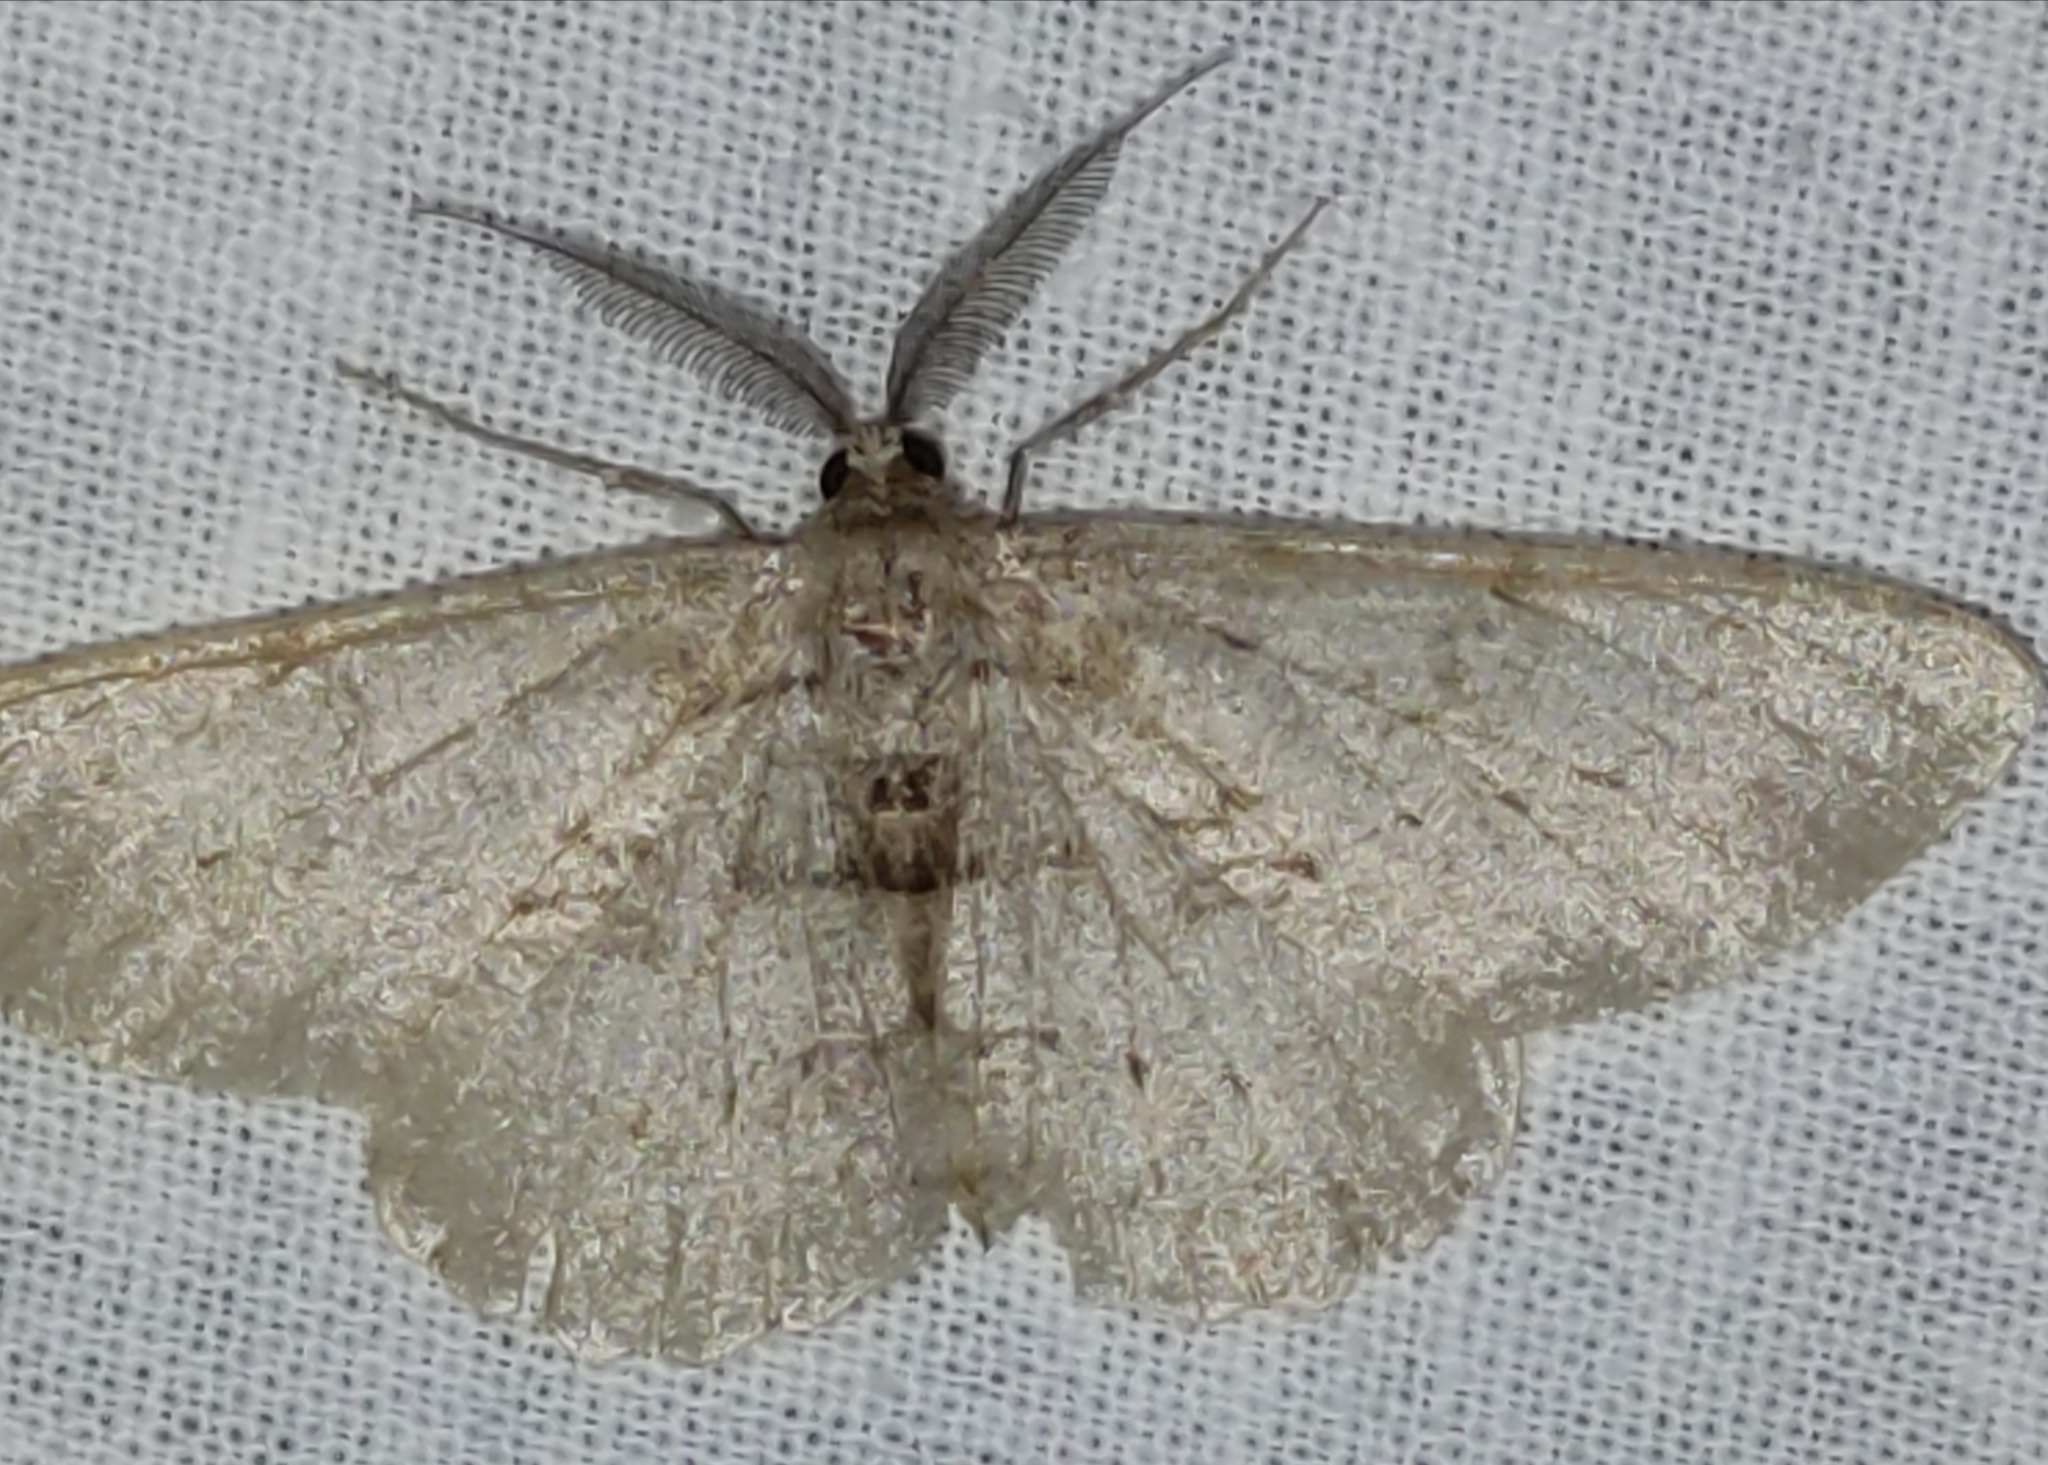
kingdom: Animalia
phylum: Arthropoda
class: Insecta
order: Lepidoptera
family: Geometridae
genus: Hypomecis
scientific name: Hypomecis punctinalis
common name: Pale oak beauty
